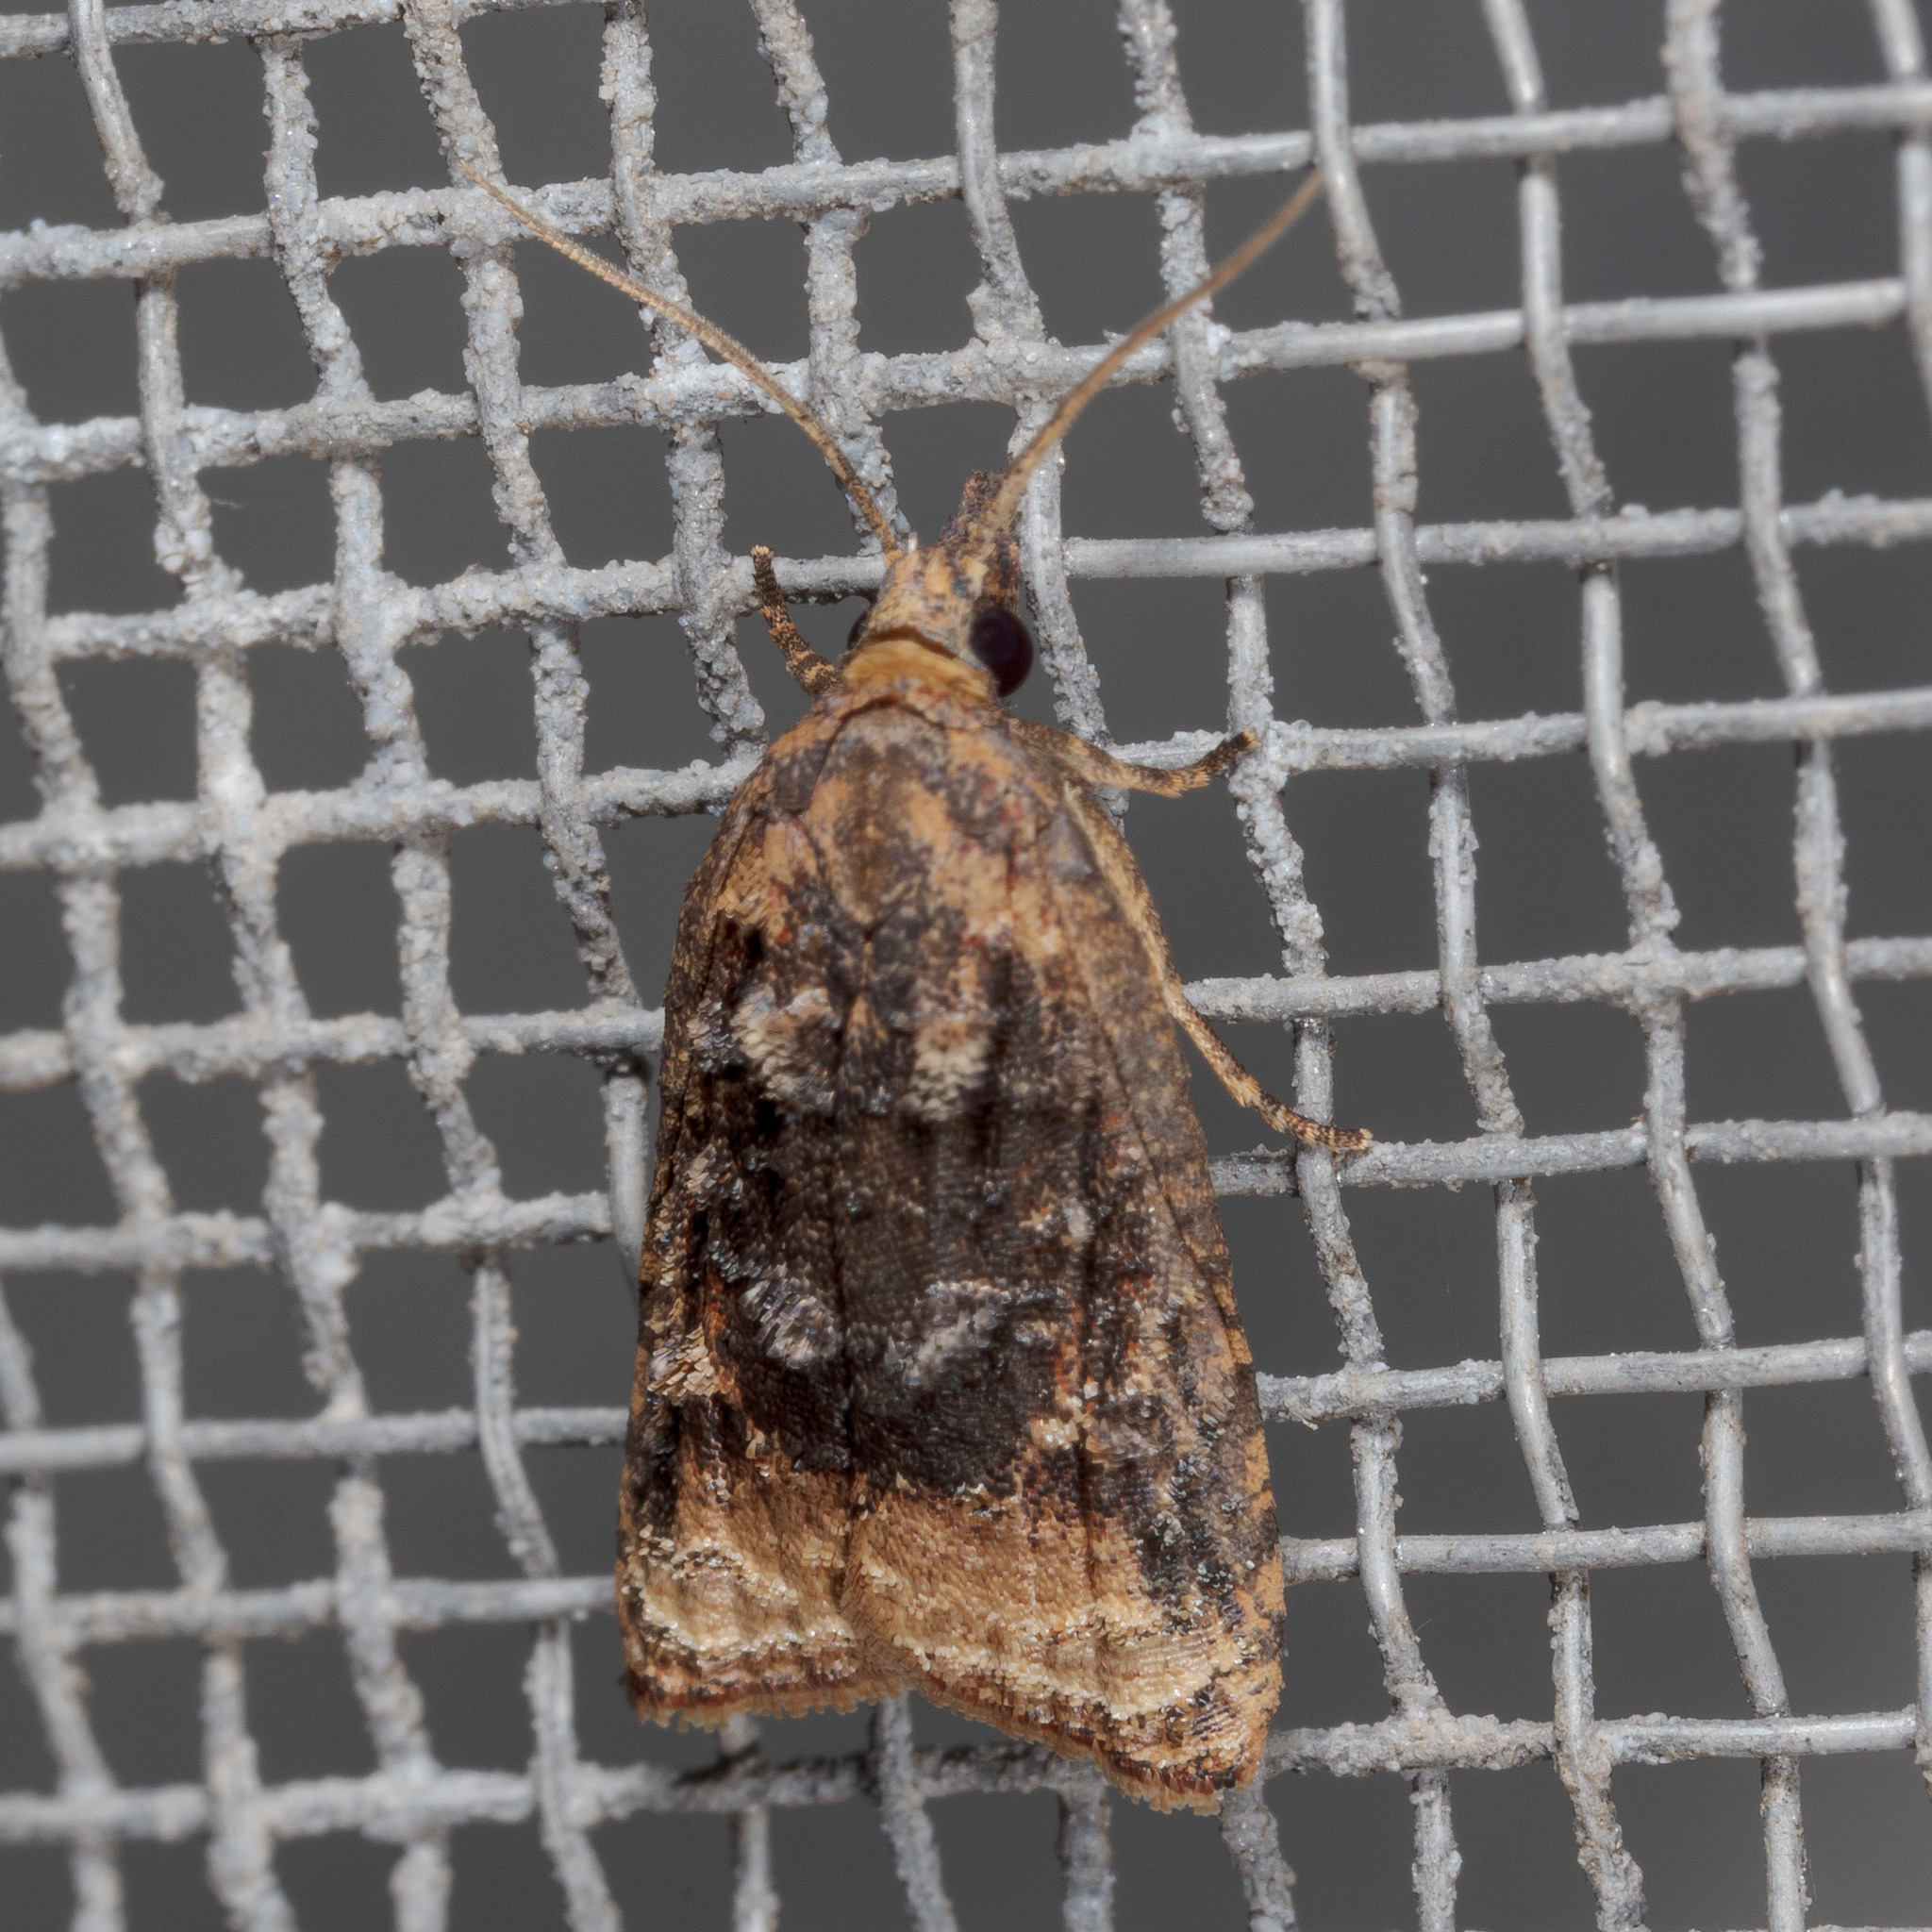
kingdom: Animalia
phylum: Arthropoda
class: Insecta
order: Lepidoptera
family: Tortricidae
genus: Platynota
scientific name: Platynota rostrana
